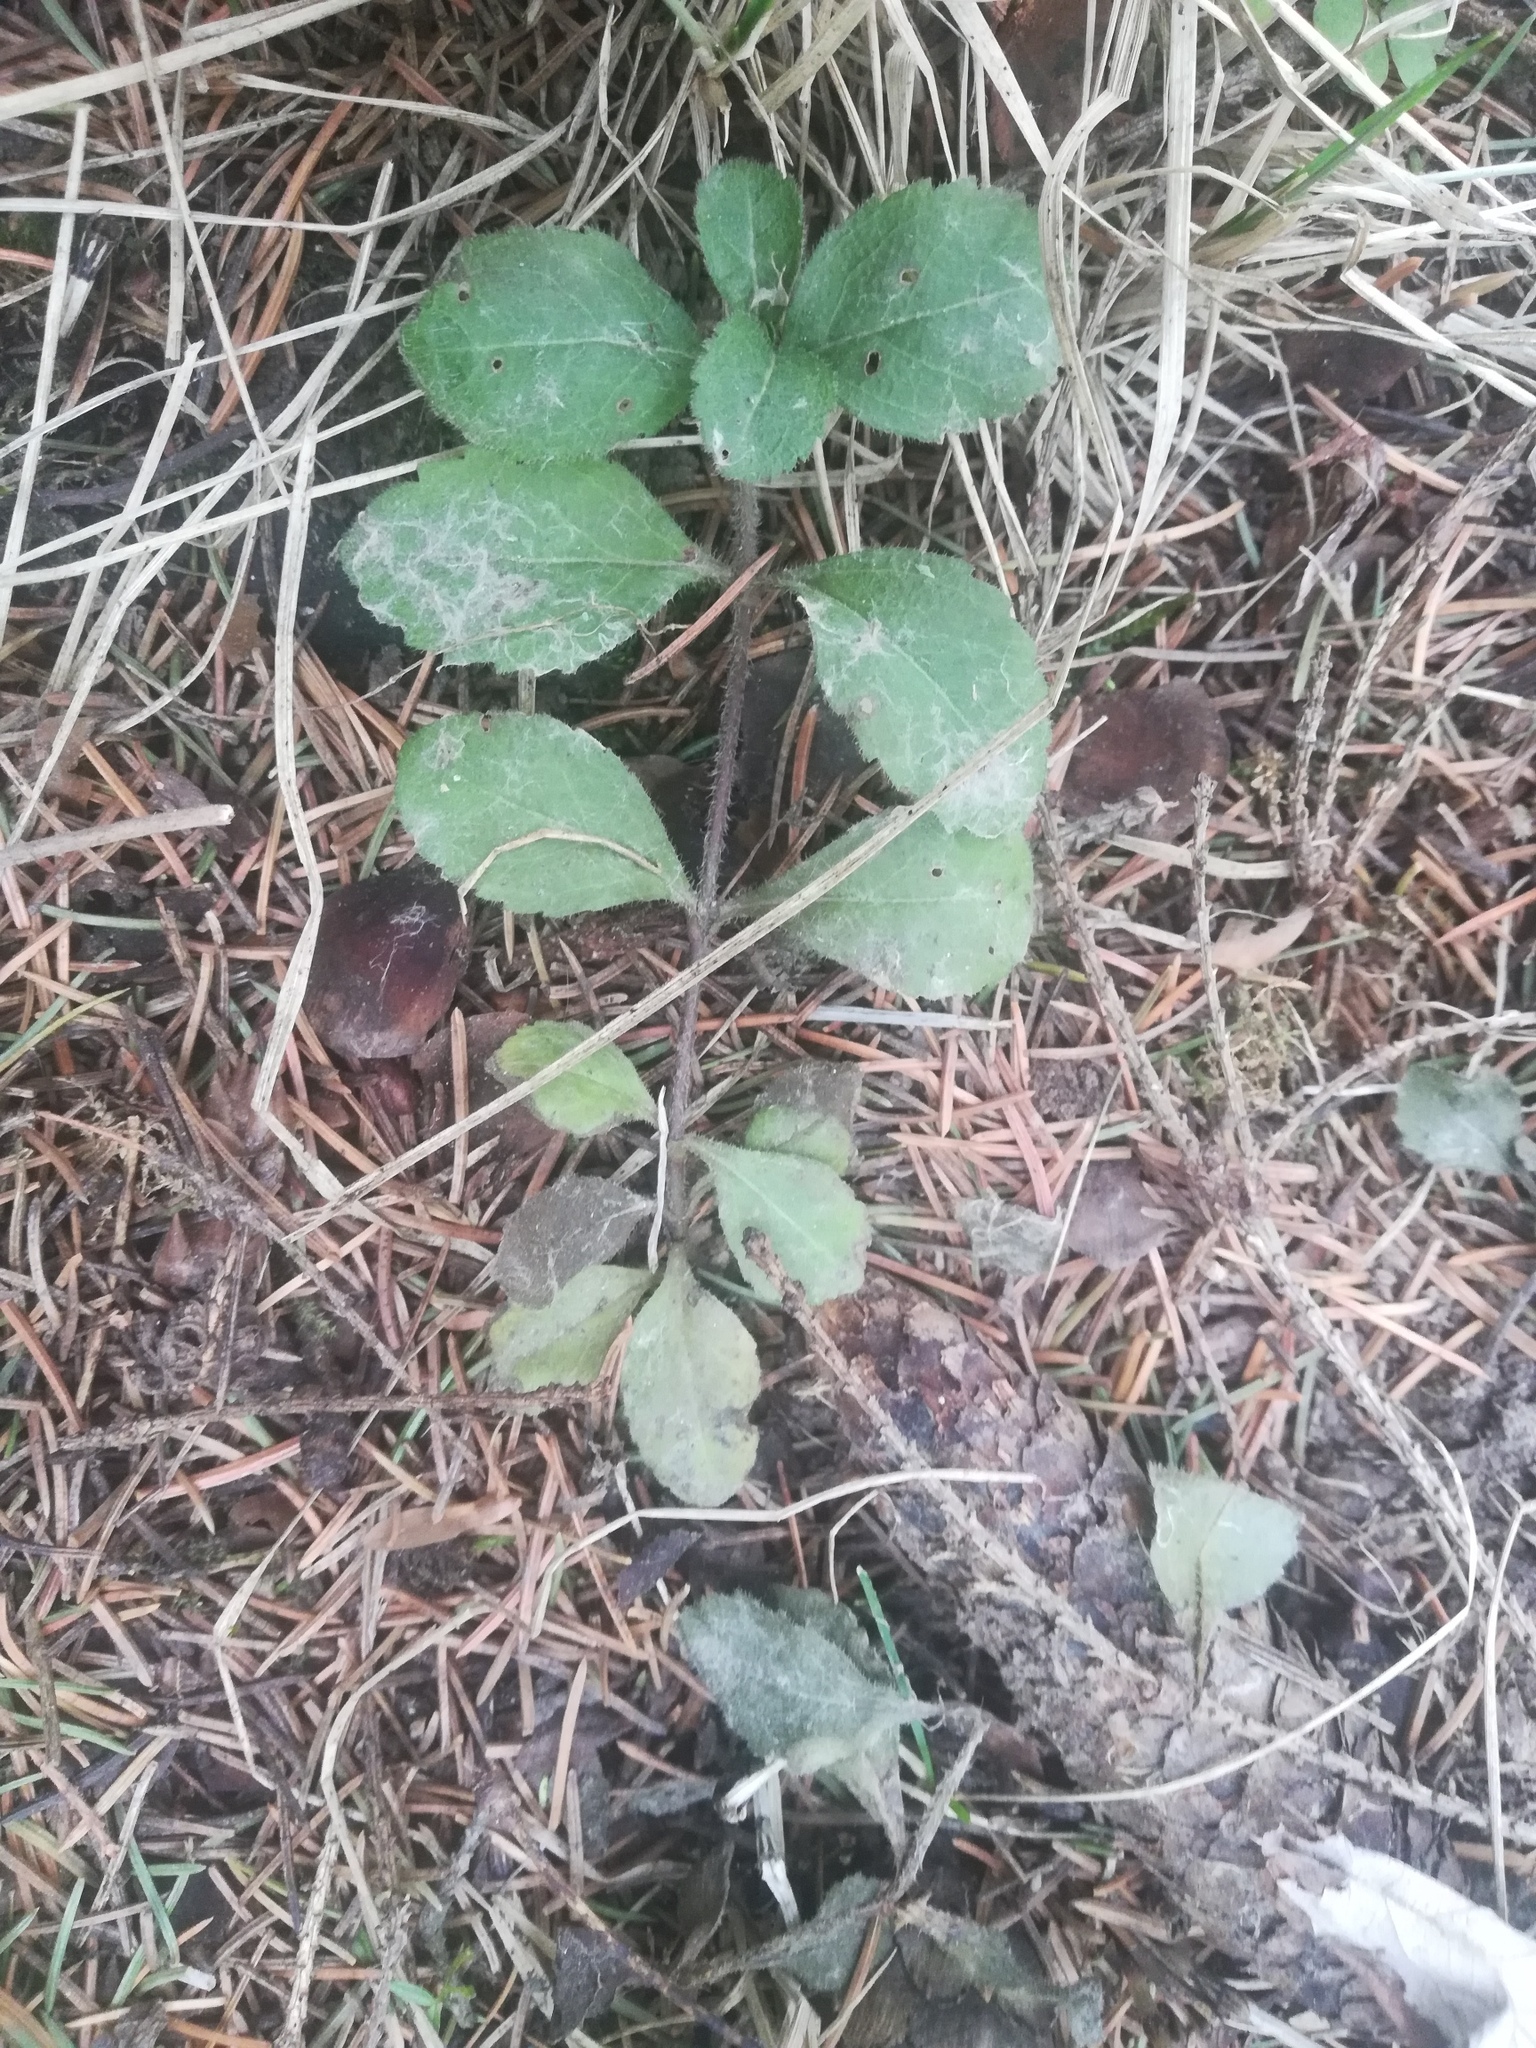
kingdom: Plantae
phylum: Tracheophyta
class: Magnoliopsida
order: Lamiales
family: Plantaginaceae
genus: Veronica
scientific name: Veronica officinalis
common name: Common speedwell
